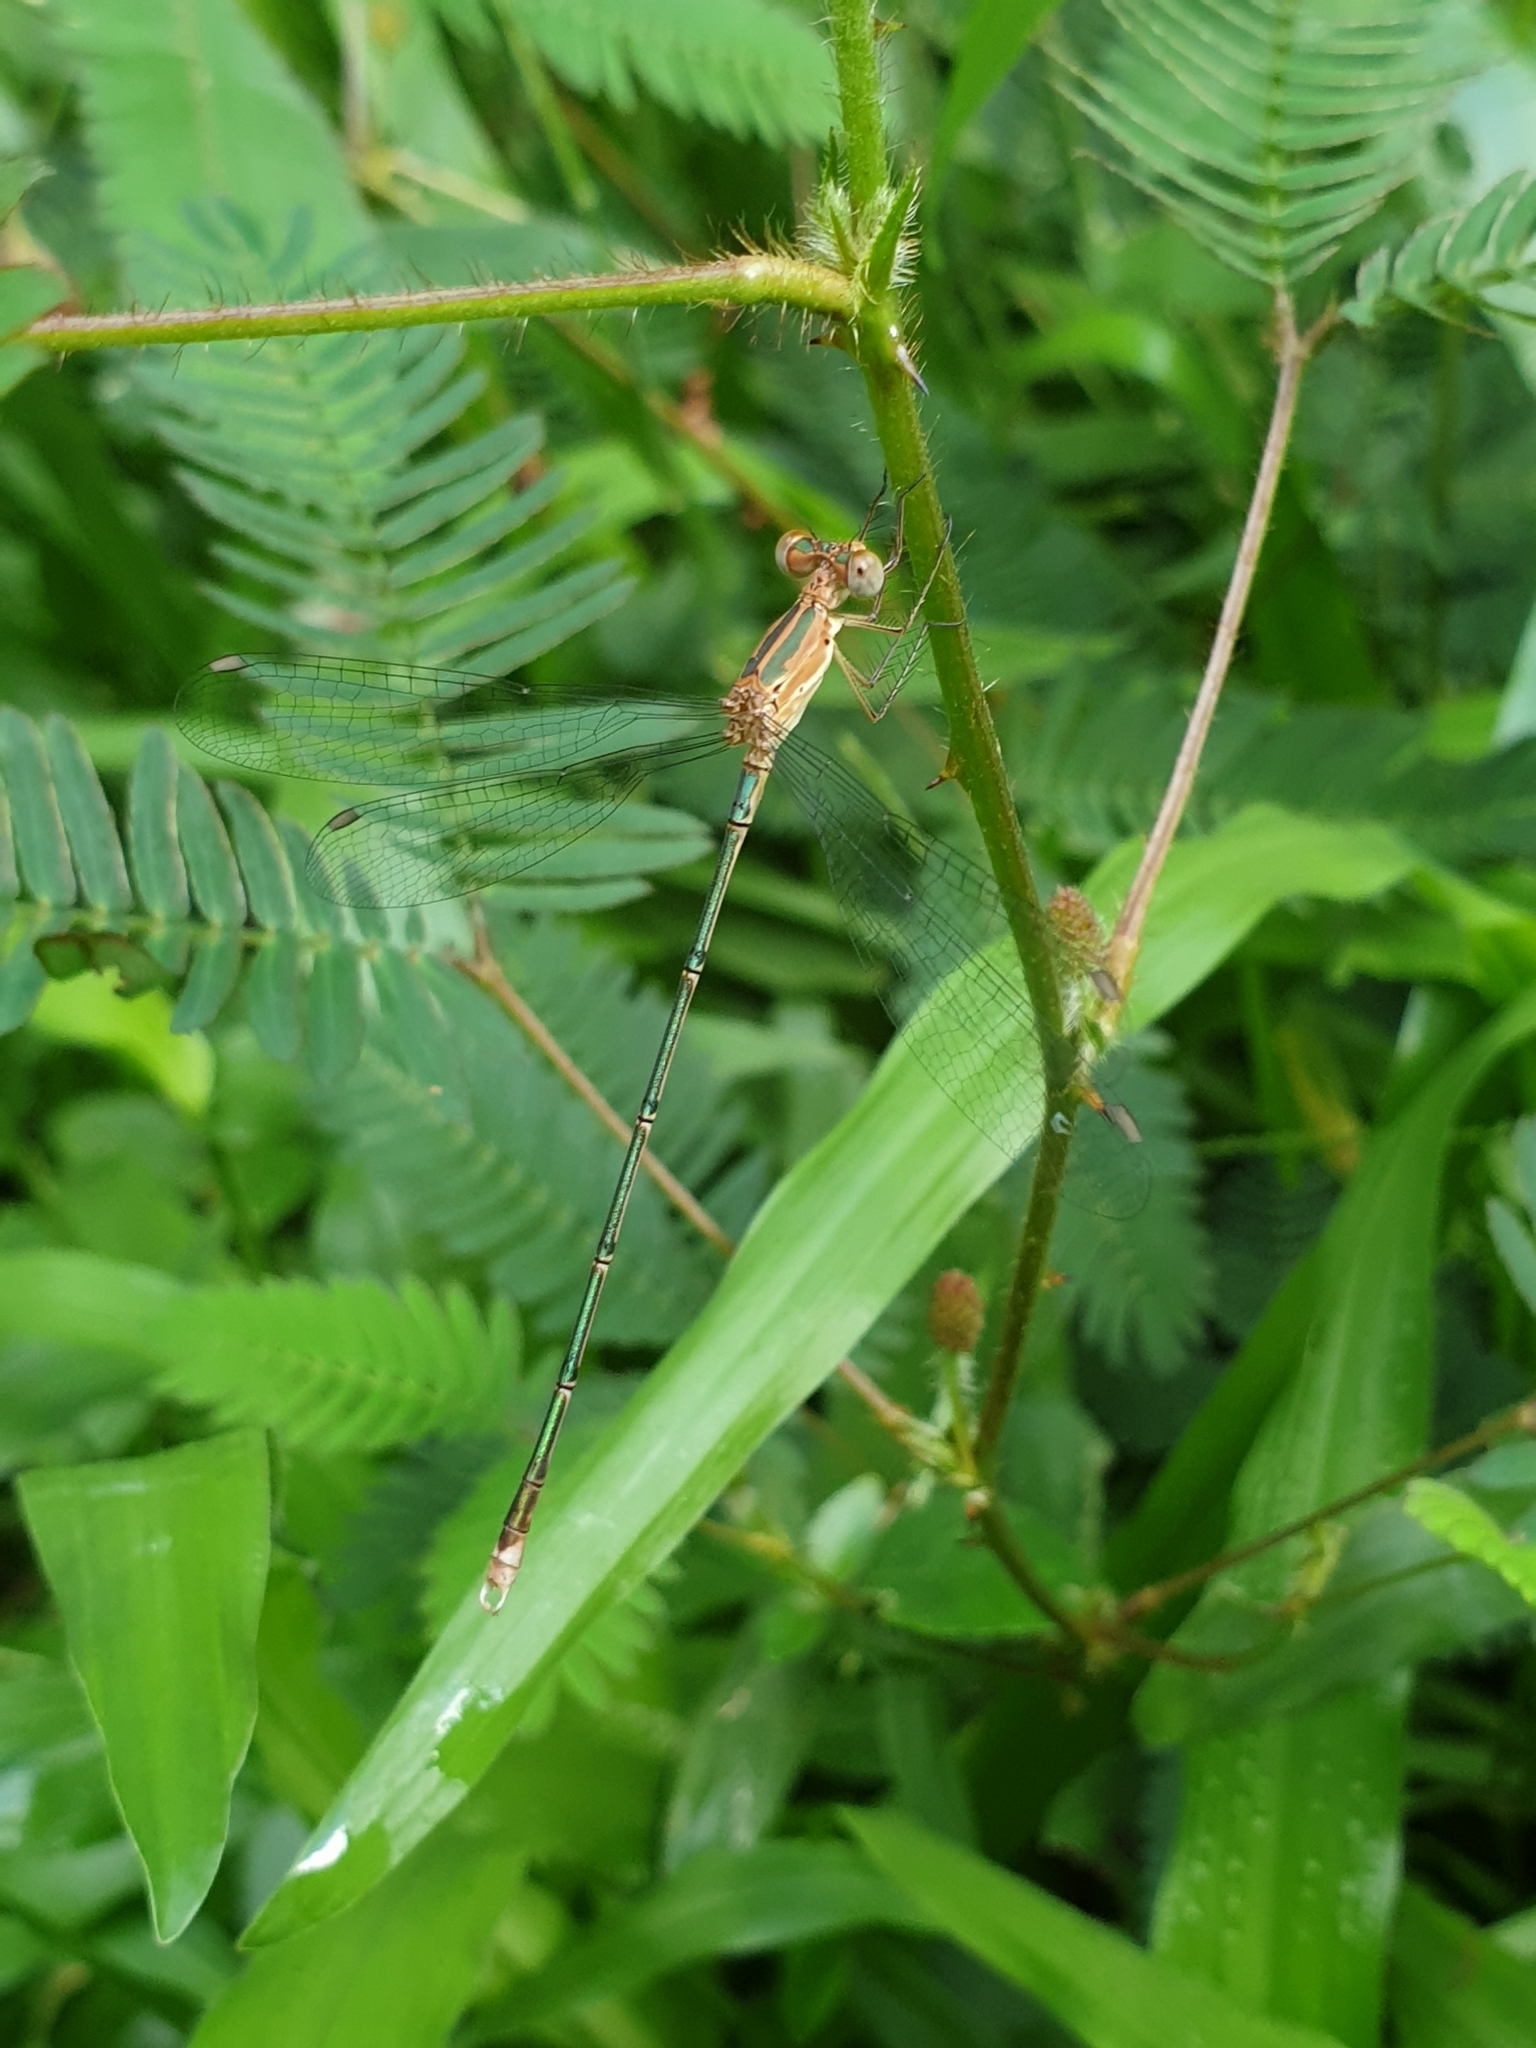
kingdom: Animalia
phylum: Arthropoda
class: Insecta
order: Odonata
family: Lestidae
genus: Lestes
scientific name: Lestes elatus
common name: Emerald spreadwing
